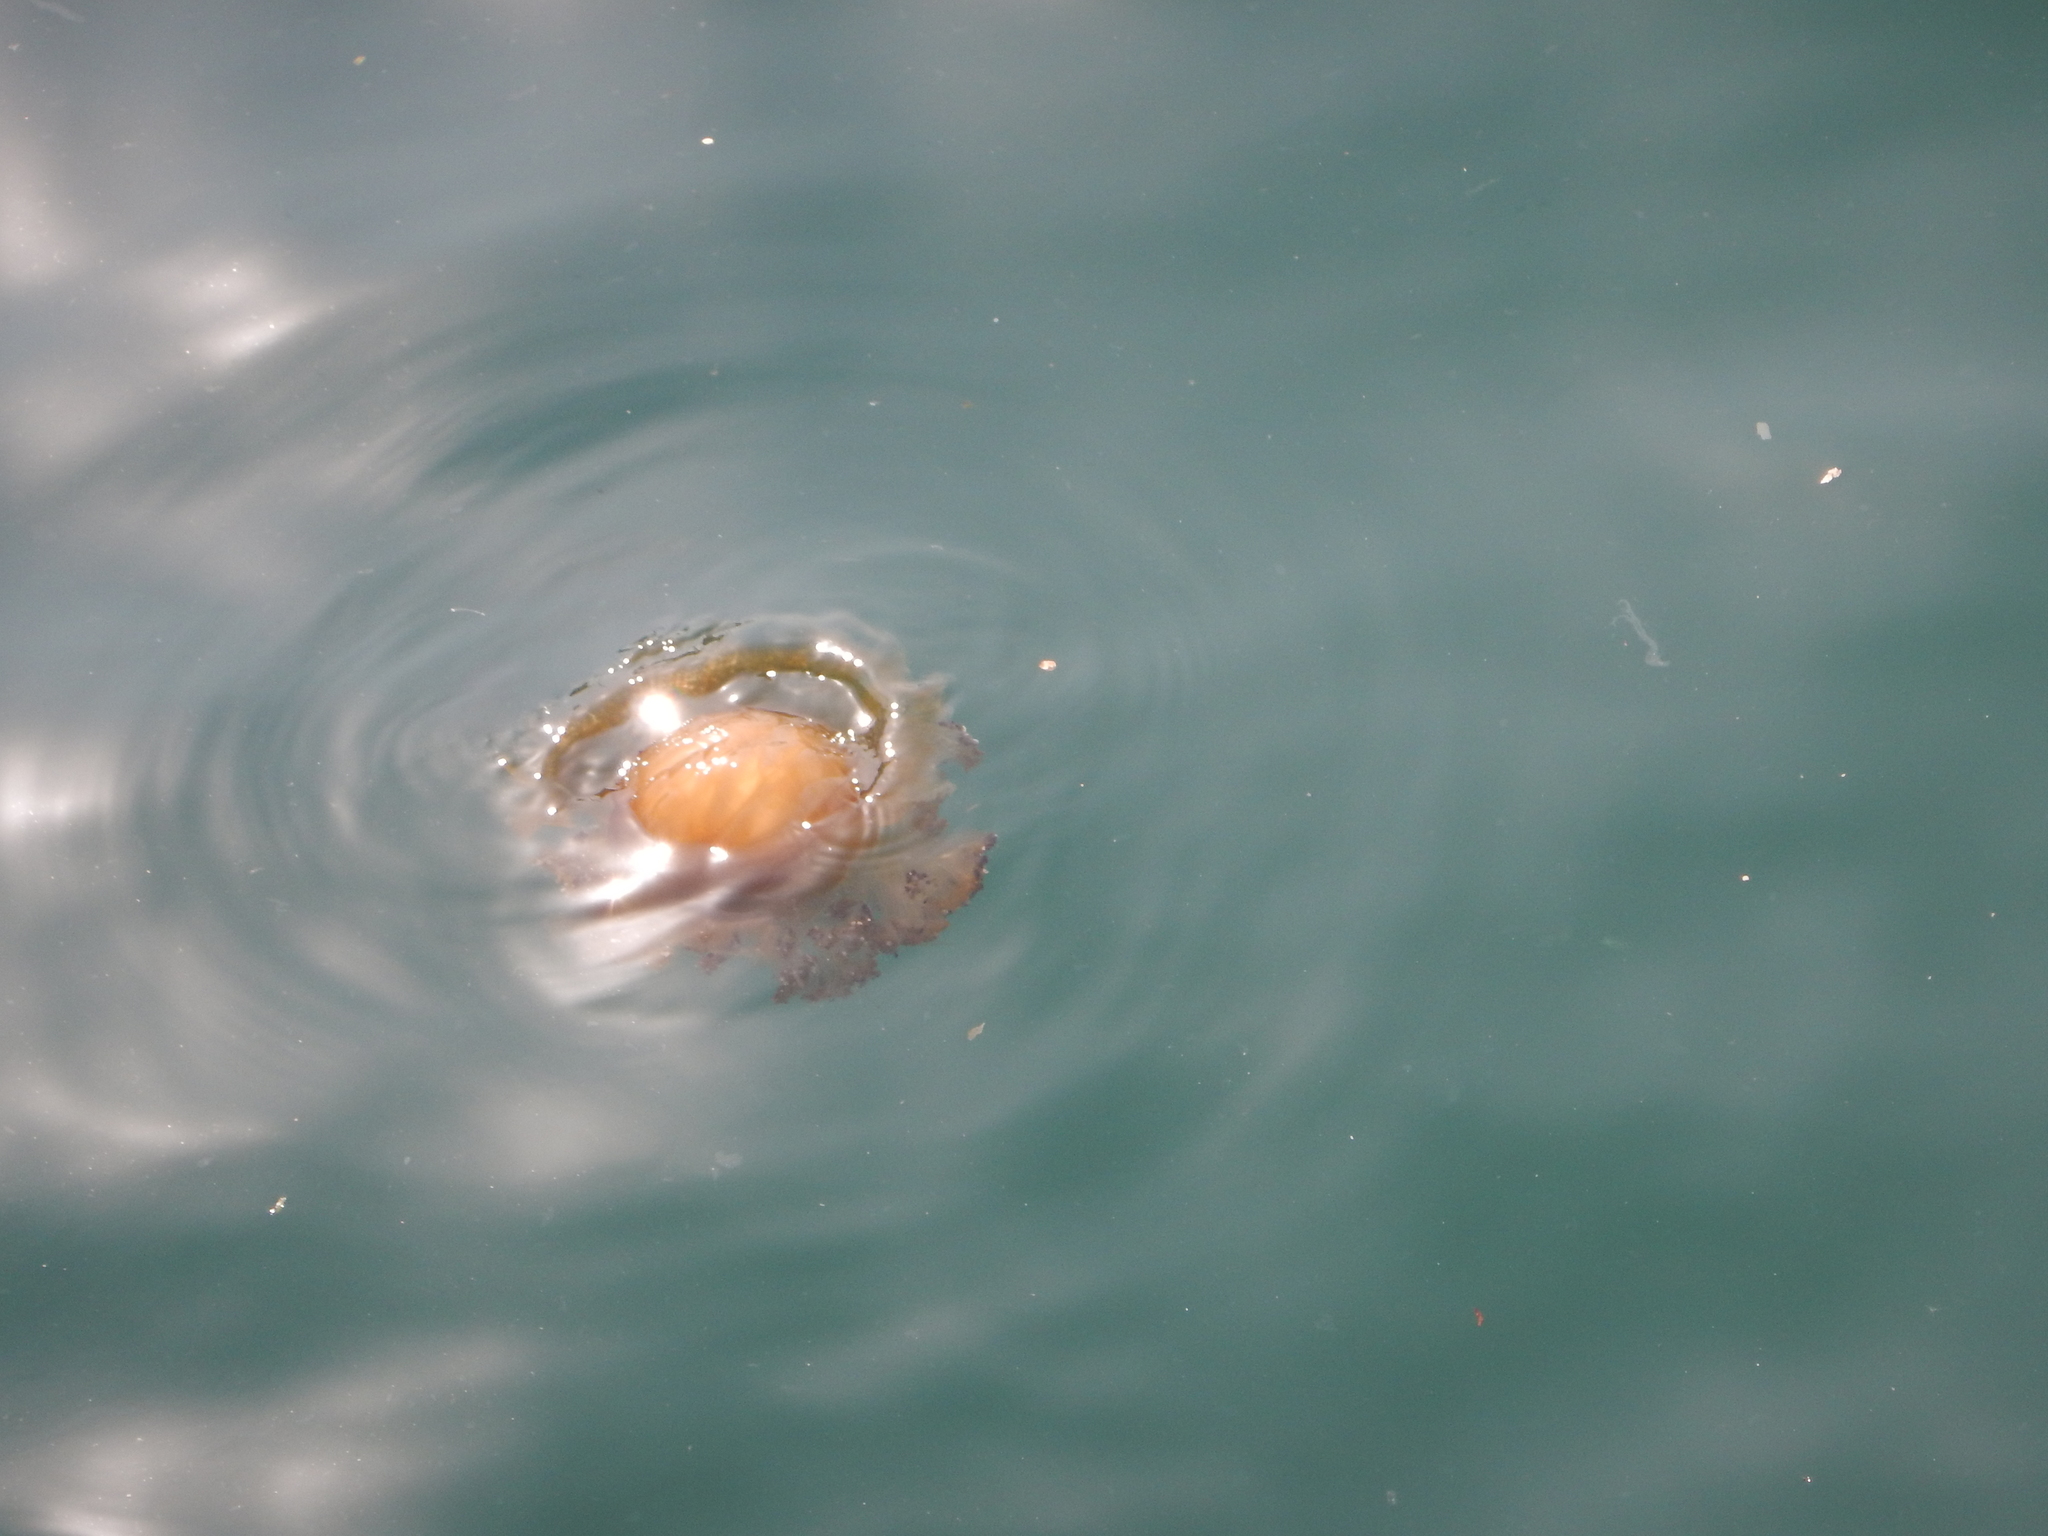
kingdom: Animalia
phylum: Cnidaria
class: Scyphozoa
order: Rhizostomeae
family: Cepheidae
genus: Cotylorhiza
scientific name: Cotylorhiza tuberculata
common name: Mediterranean jelly
